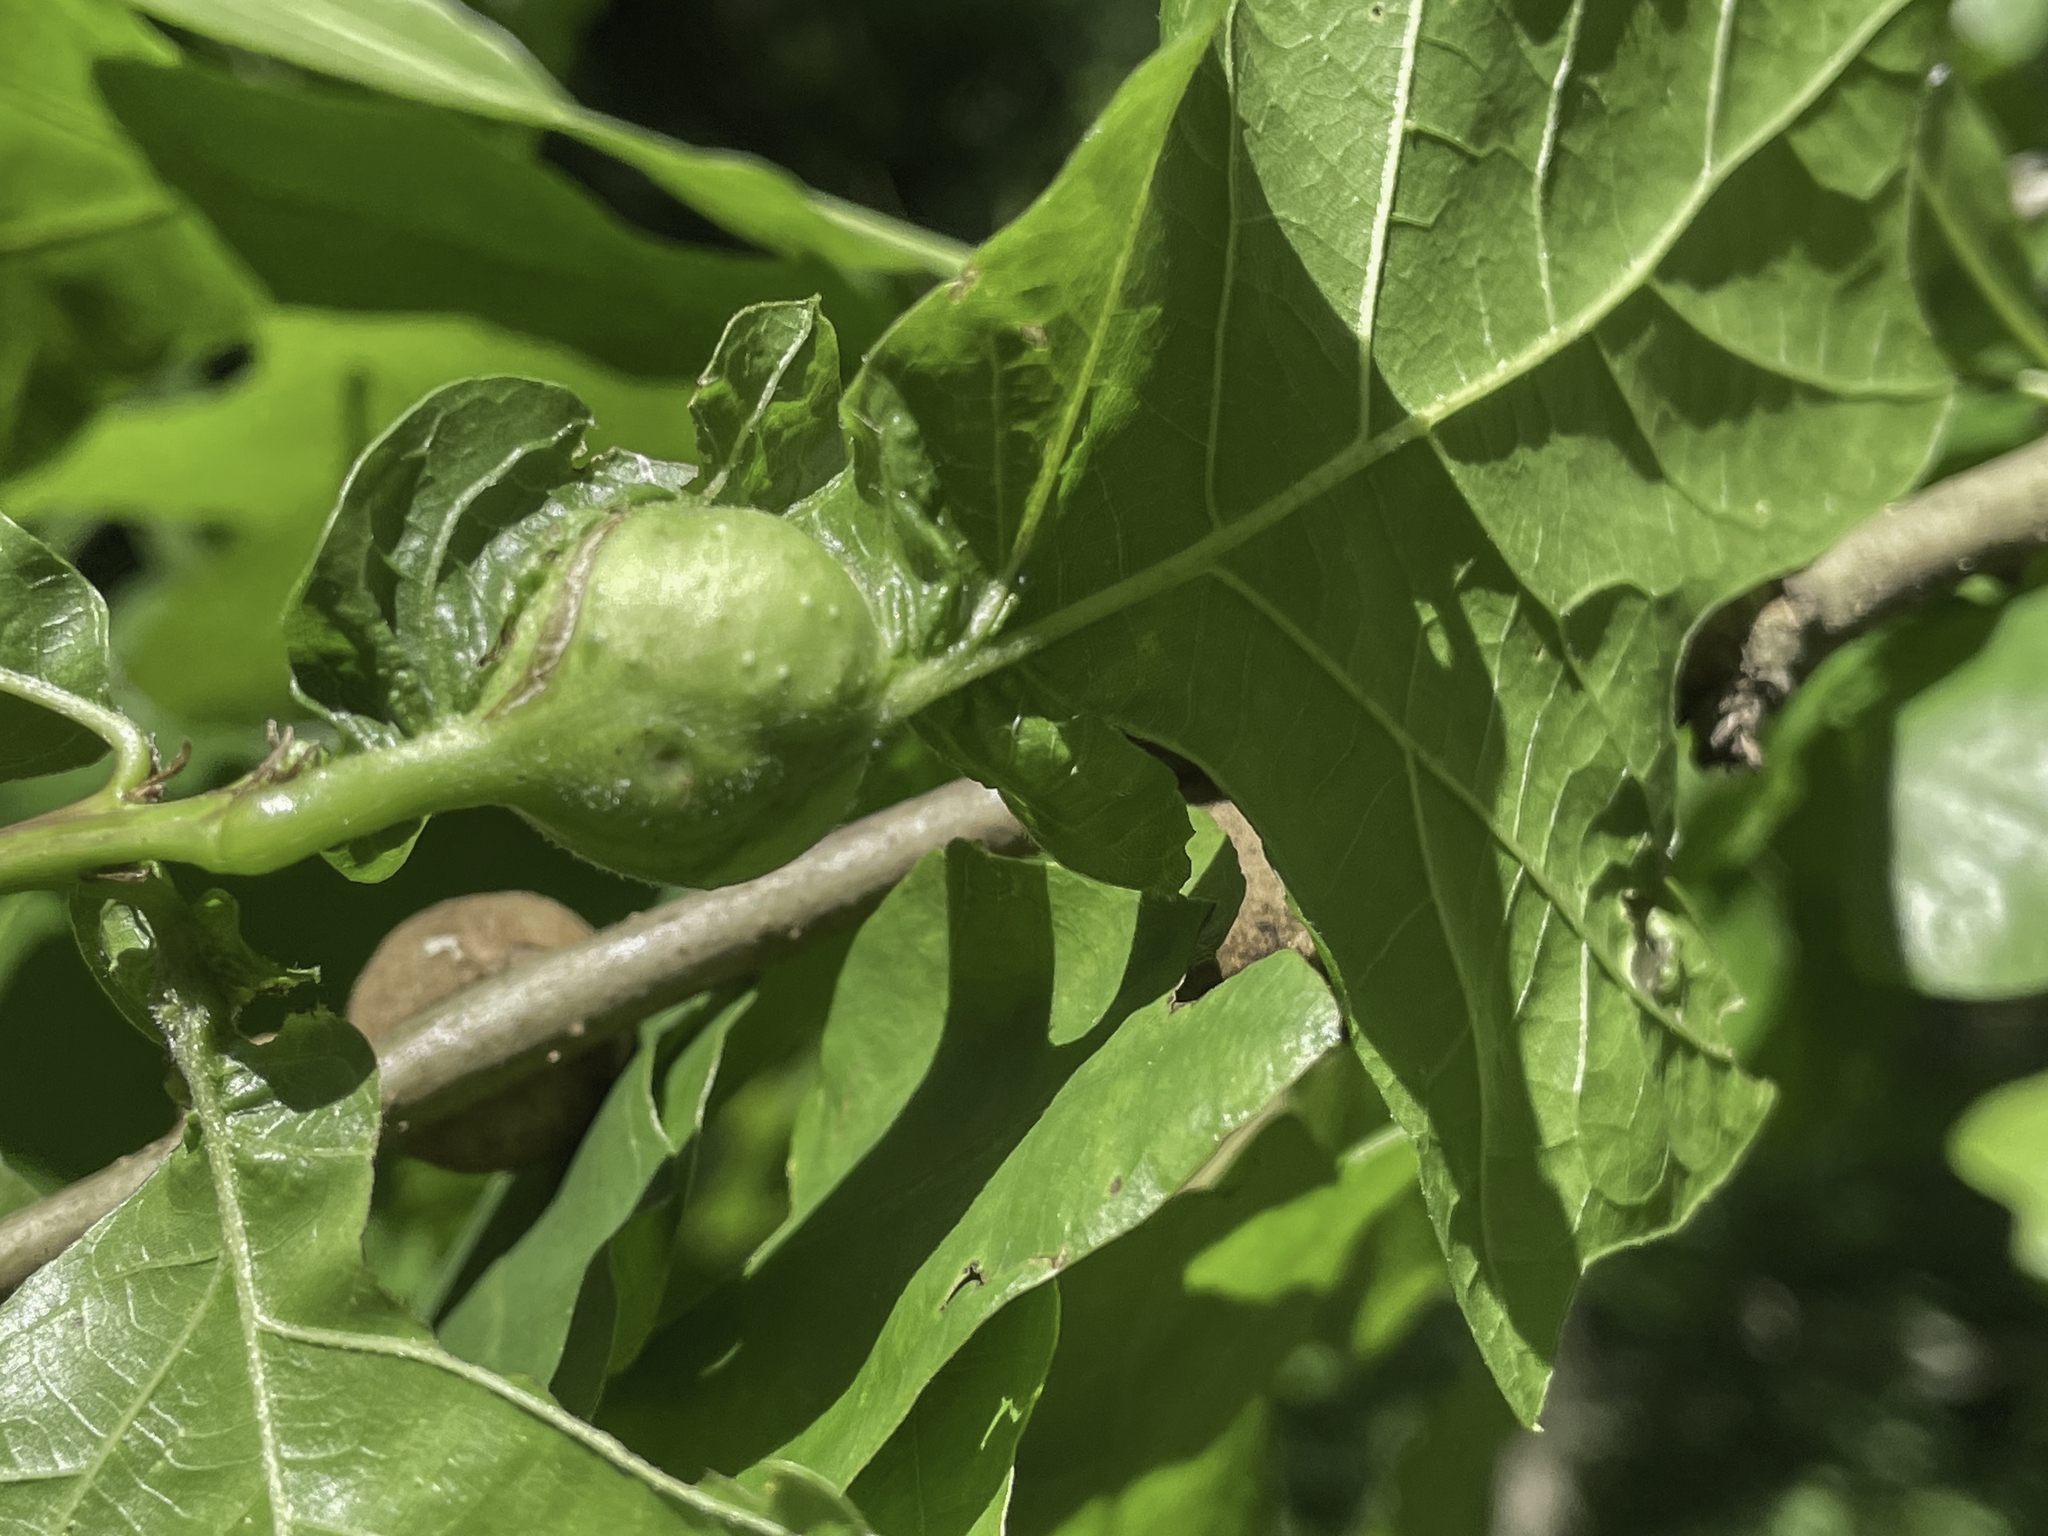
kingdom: Animalia
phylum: Arthropoda
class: Insecta
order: Hymenoptera
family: Cynipidae
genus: Andricus
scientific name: Andricus
